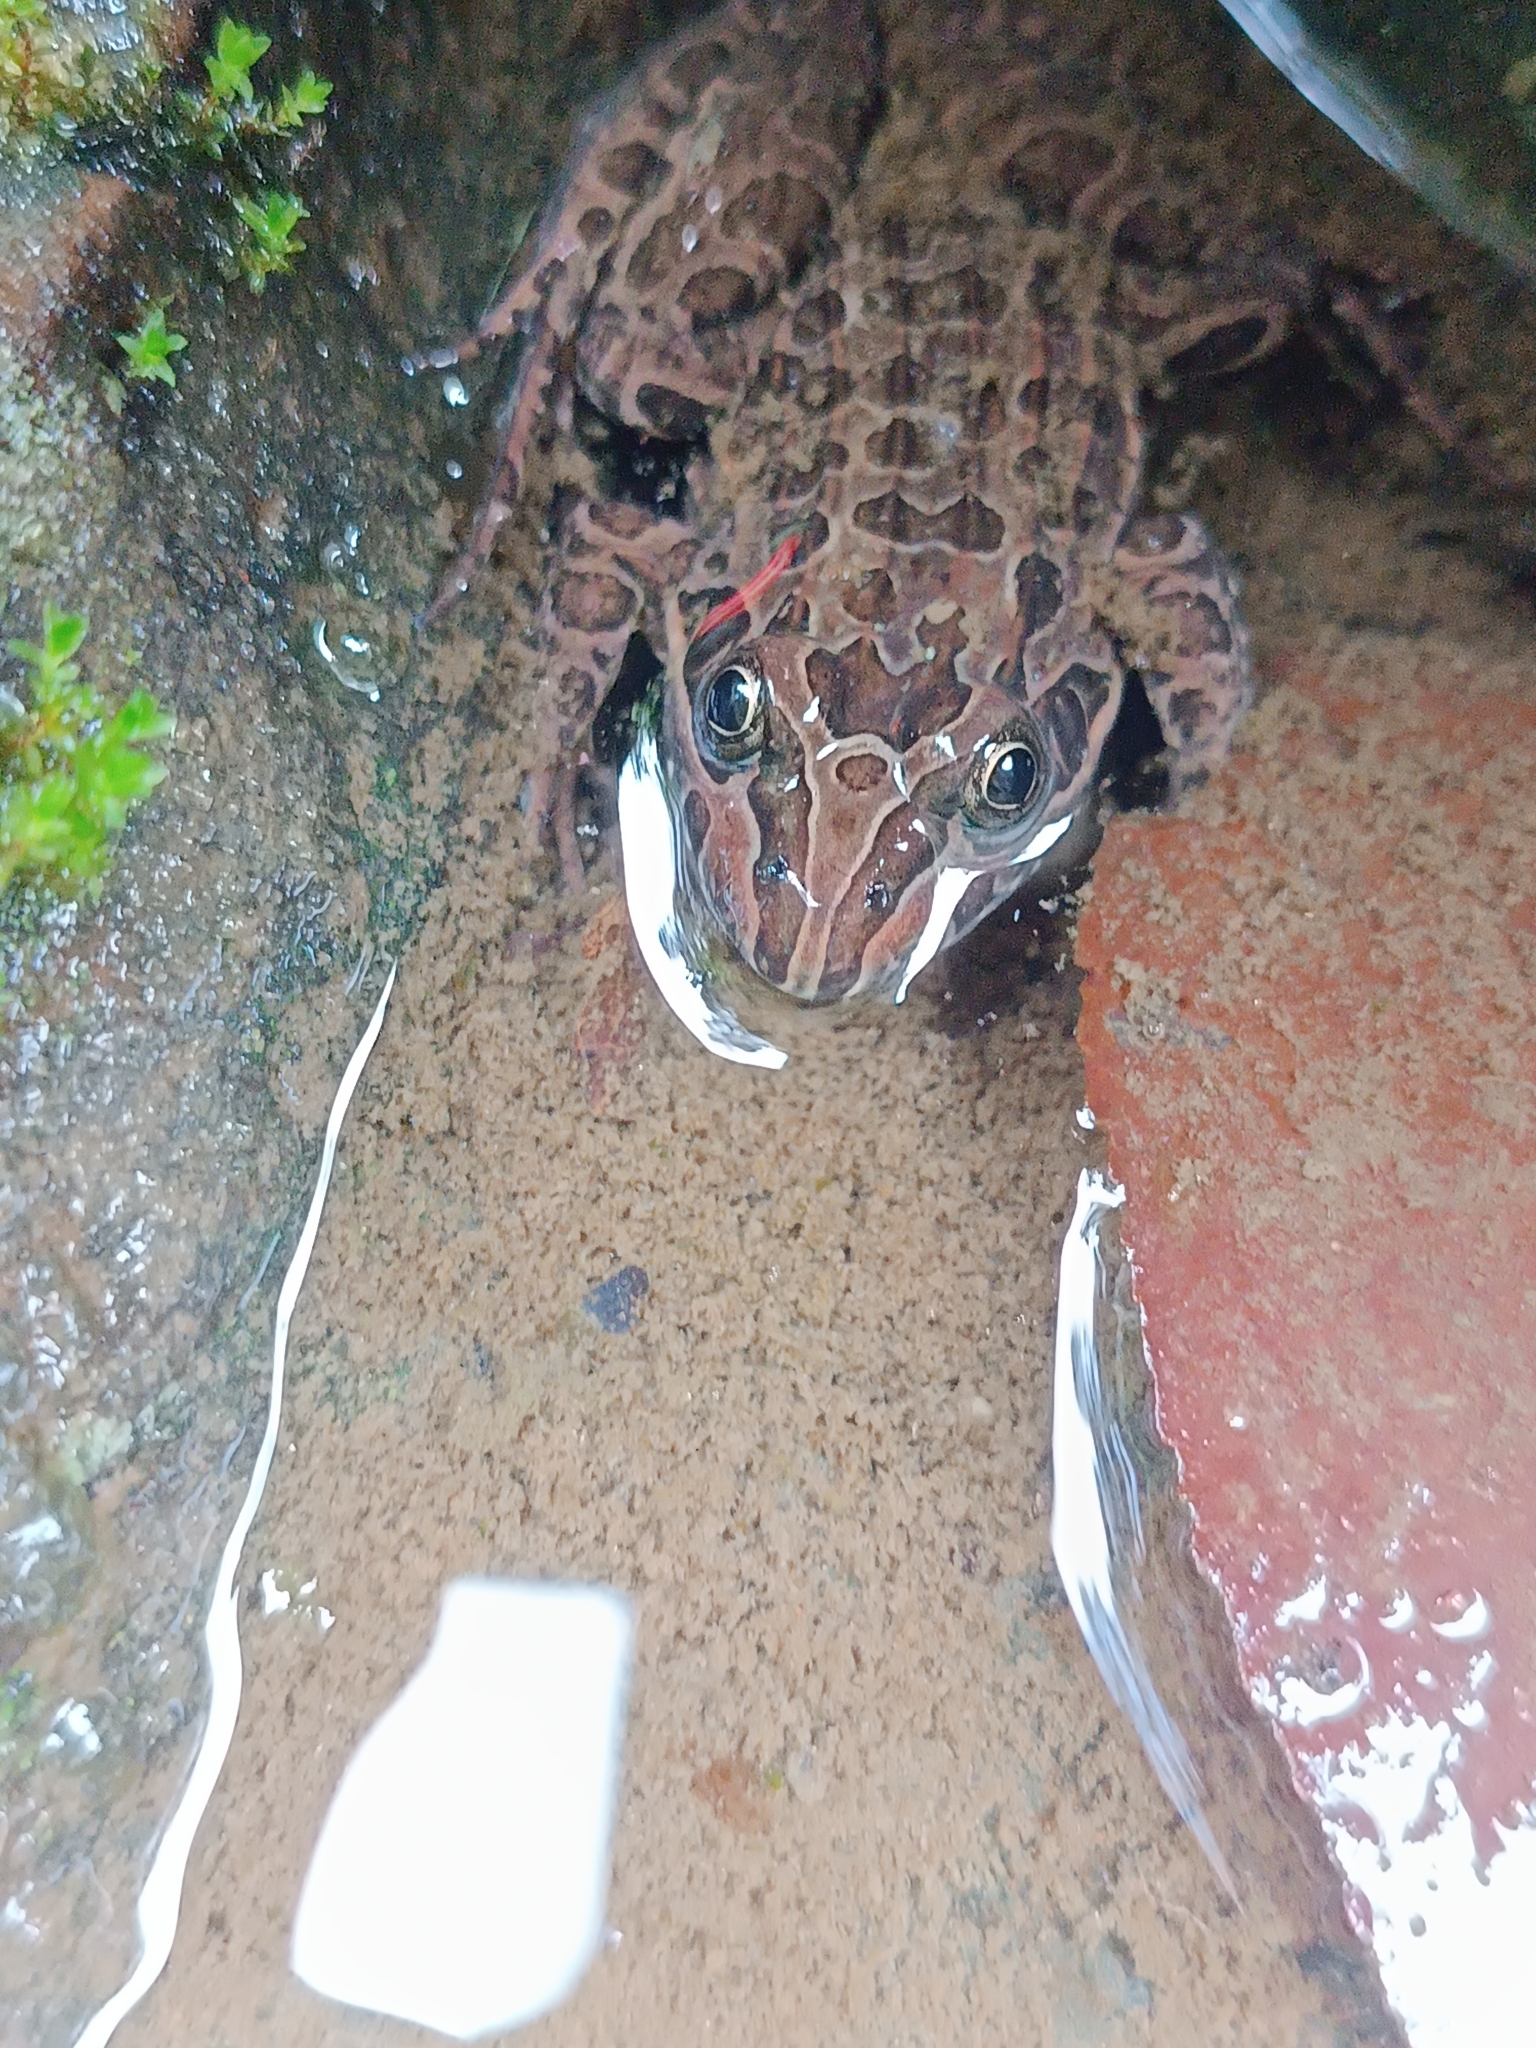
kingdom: Animalia
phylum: Chordata
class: Amphibia
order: Anura
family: Leptodactylidae
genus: Leptodactylus
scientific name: Leptodactylus luctator
